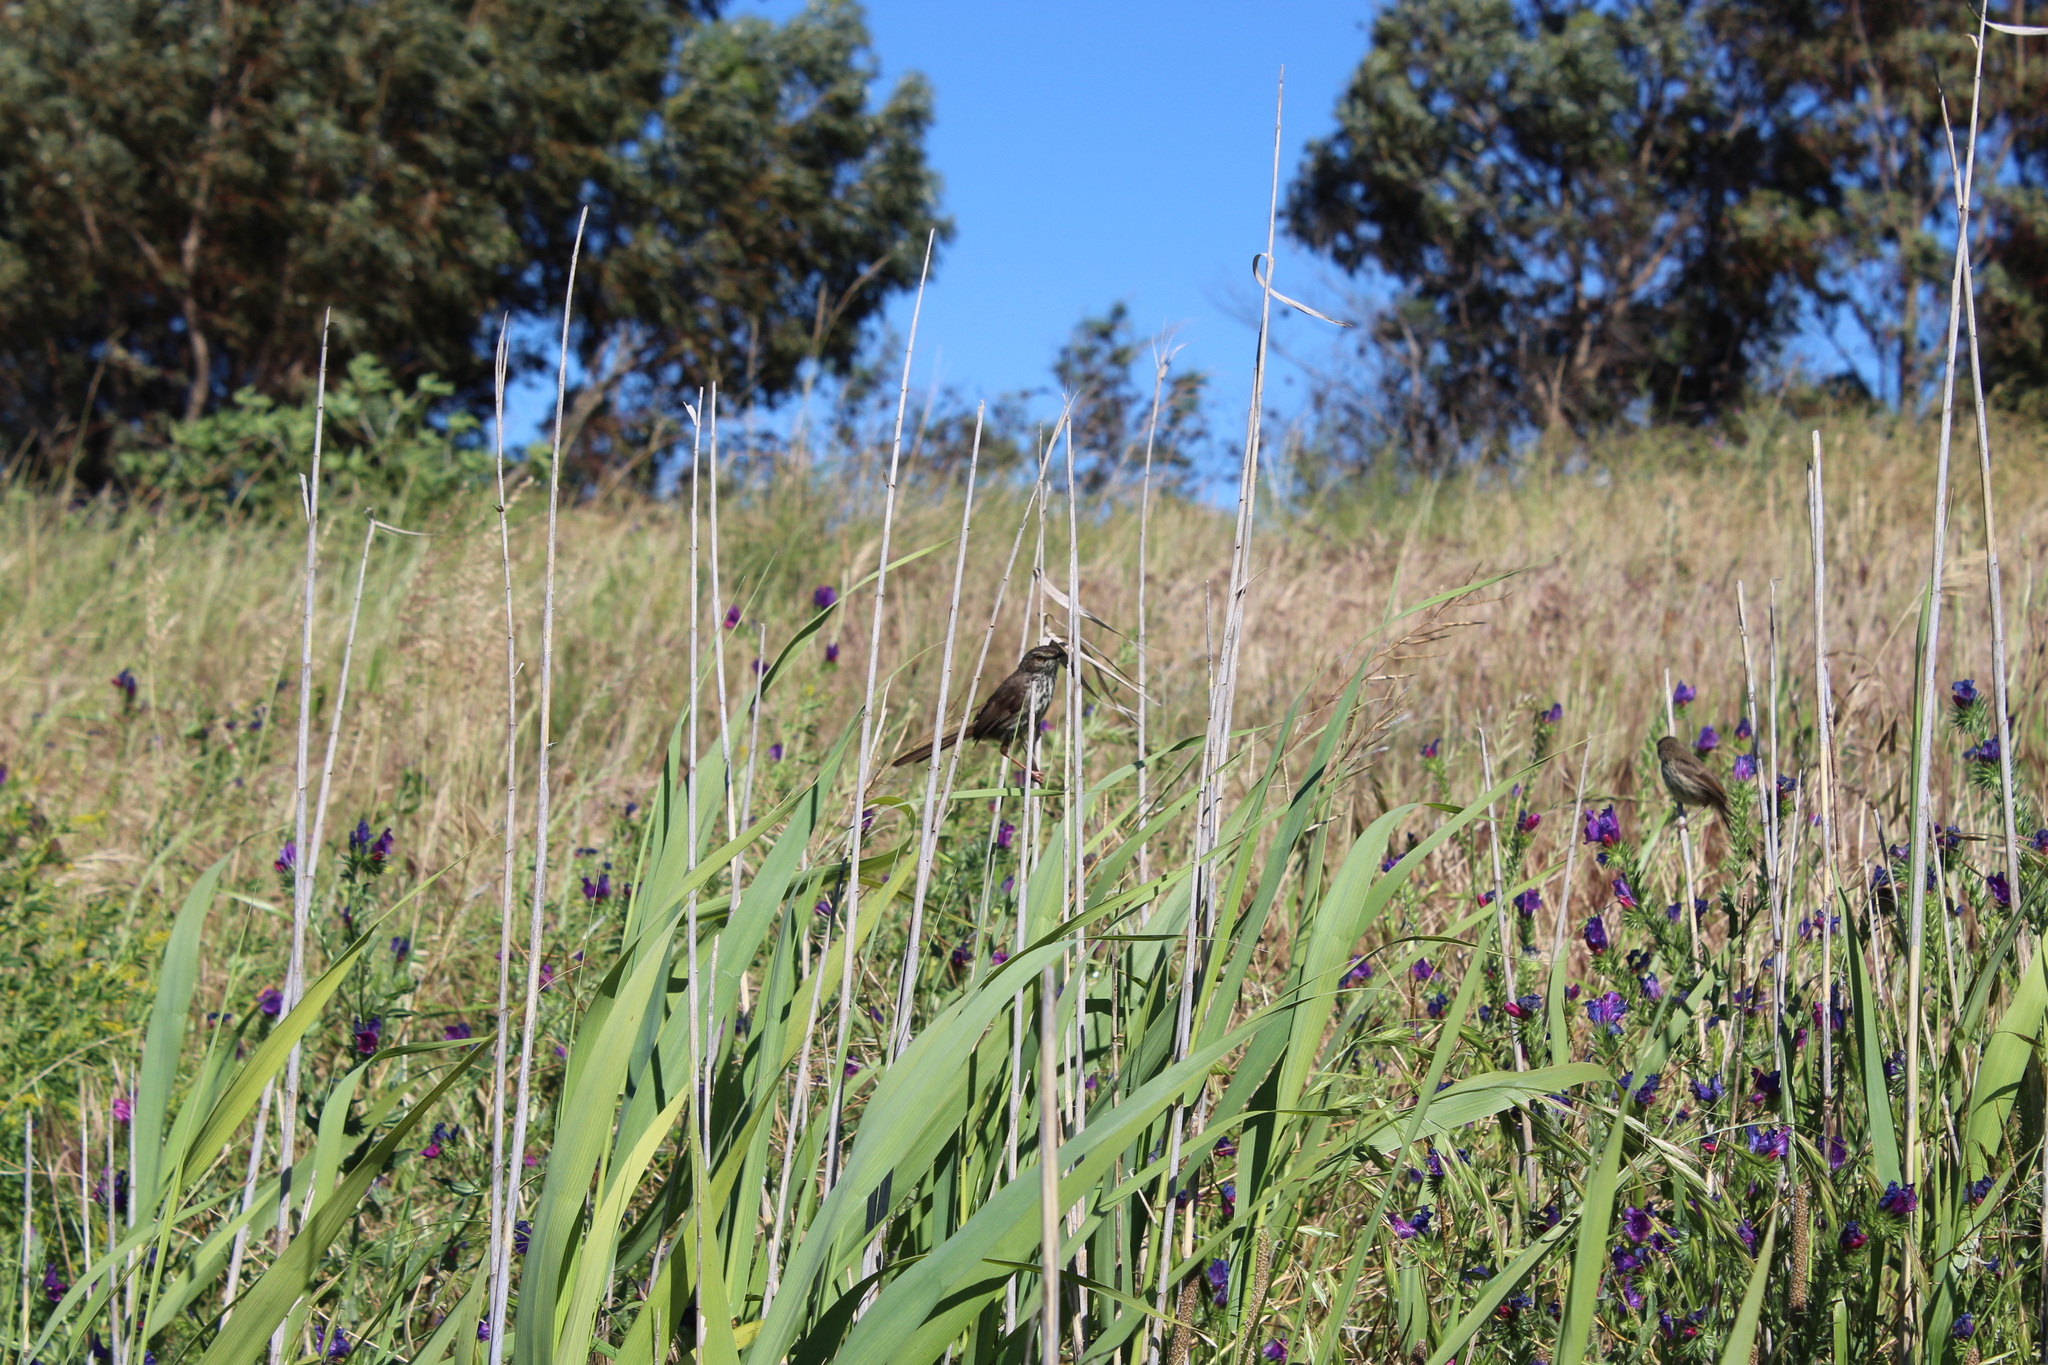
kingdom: Animalia
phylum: Chordata
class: Aves
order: Passeriformes
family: Cisticolidae
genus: Prinia
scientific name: Prinia maculosa
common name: Karoo prinia
